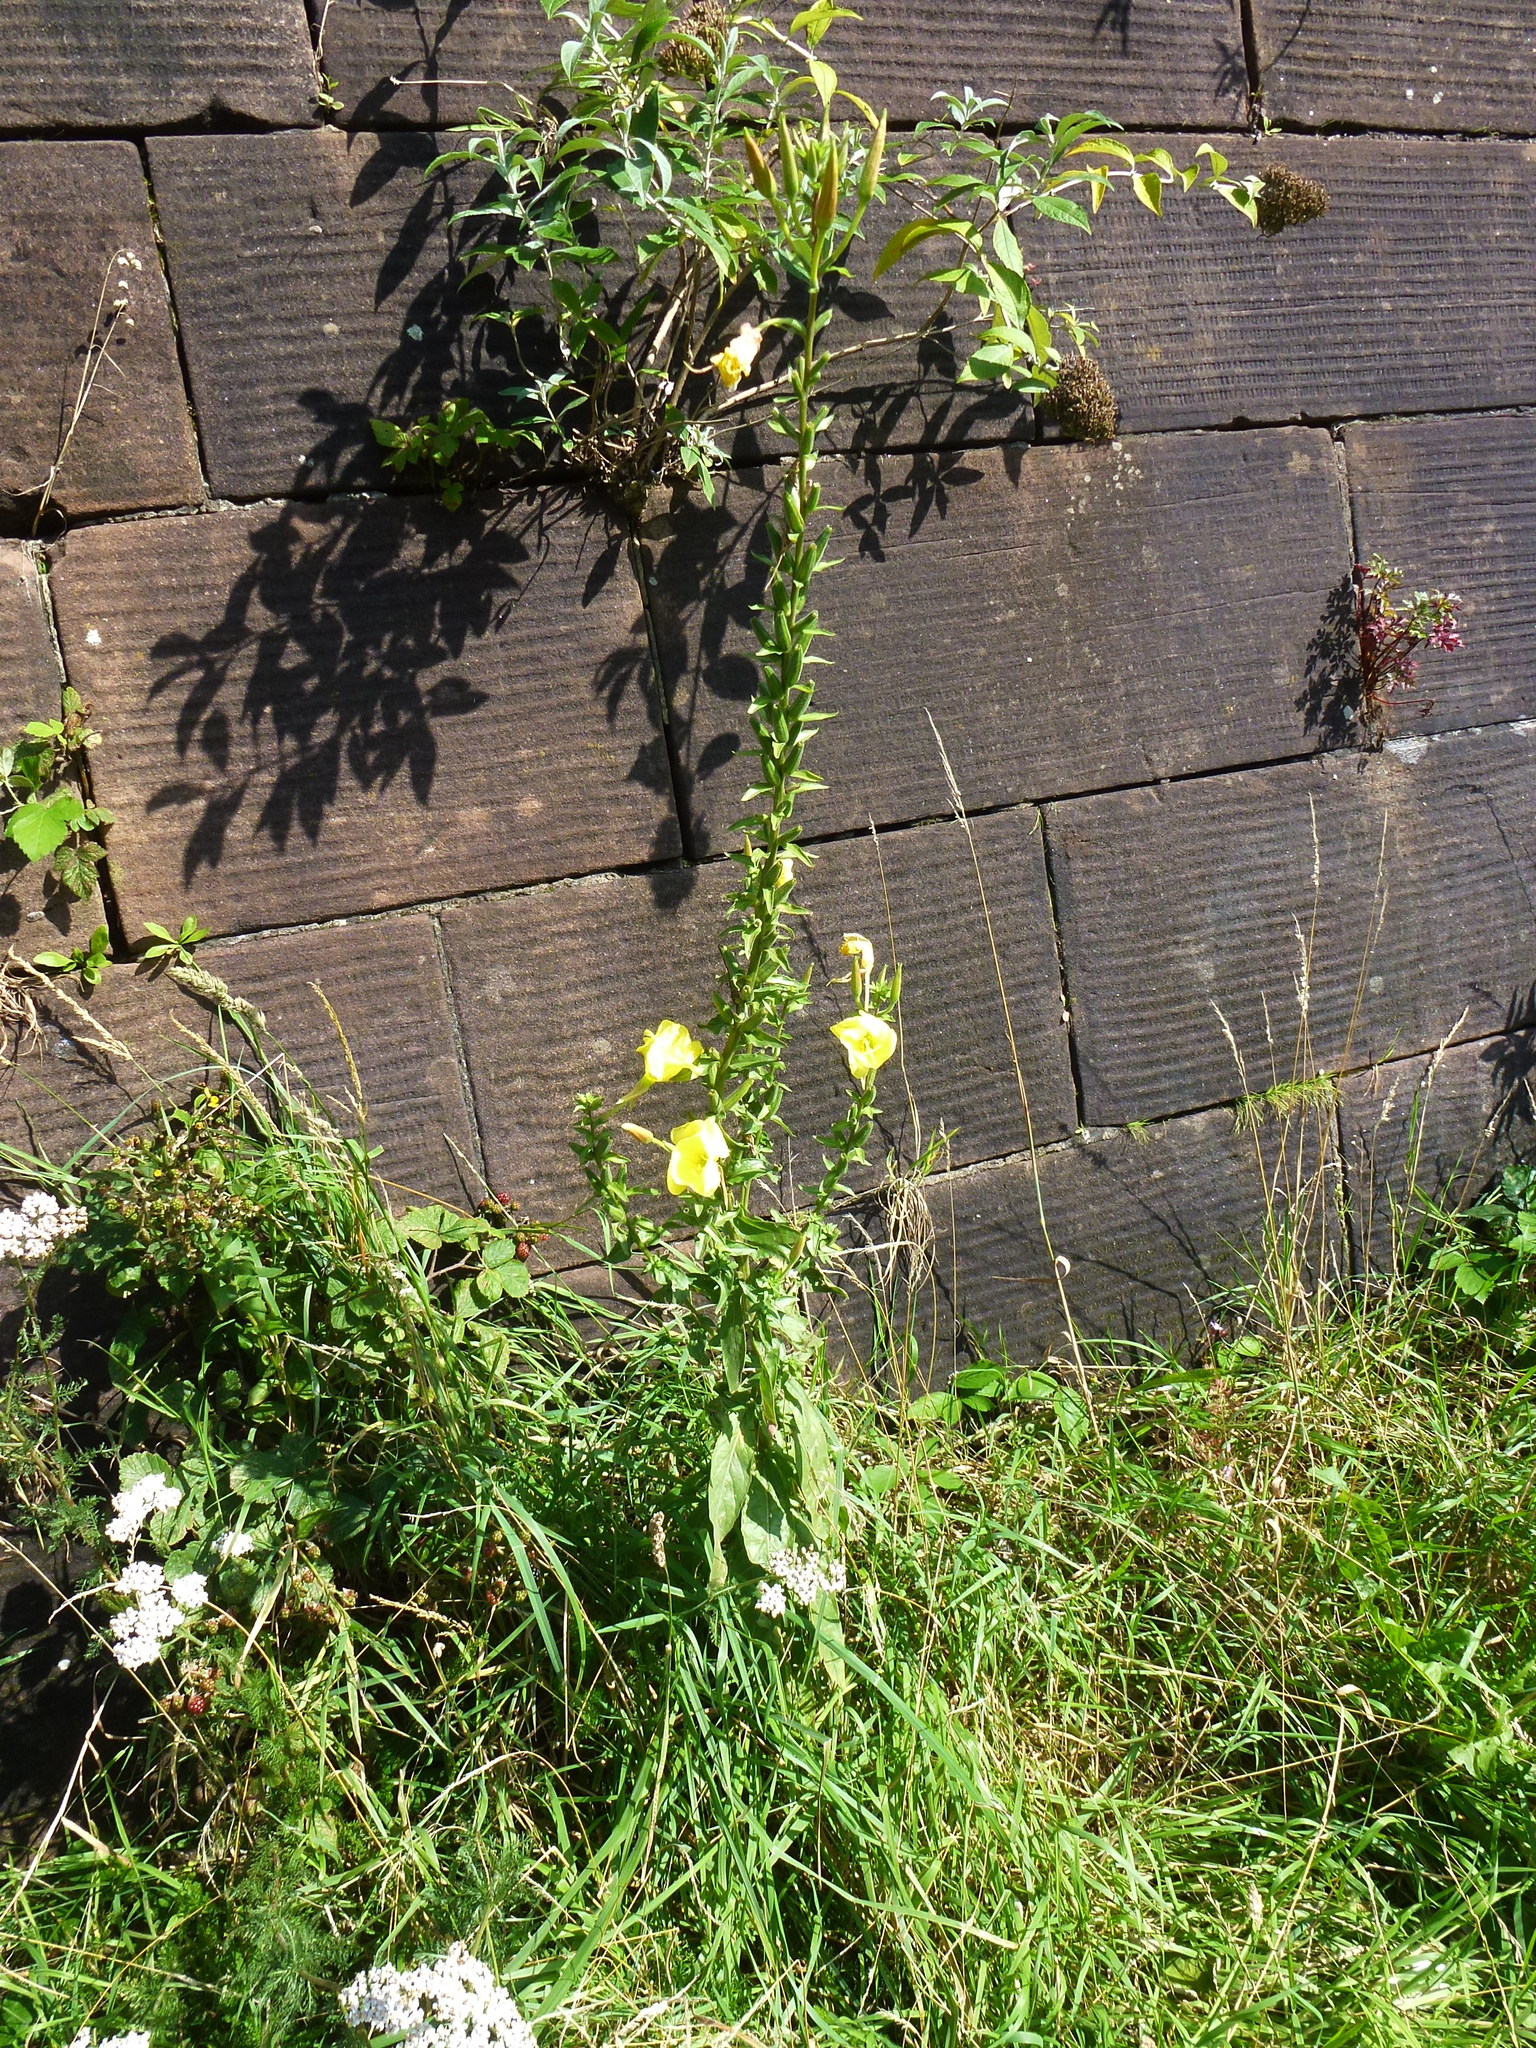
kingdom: Plantae
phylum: Tracheophyta
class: Magnoliopsida
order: Myrtales
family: Onagraceae
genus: Oenothera
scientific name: Oenothera glazioviana
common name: Large-flowered evening-primrose
